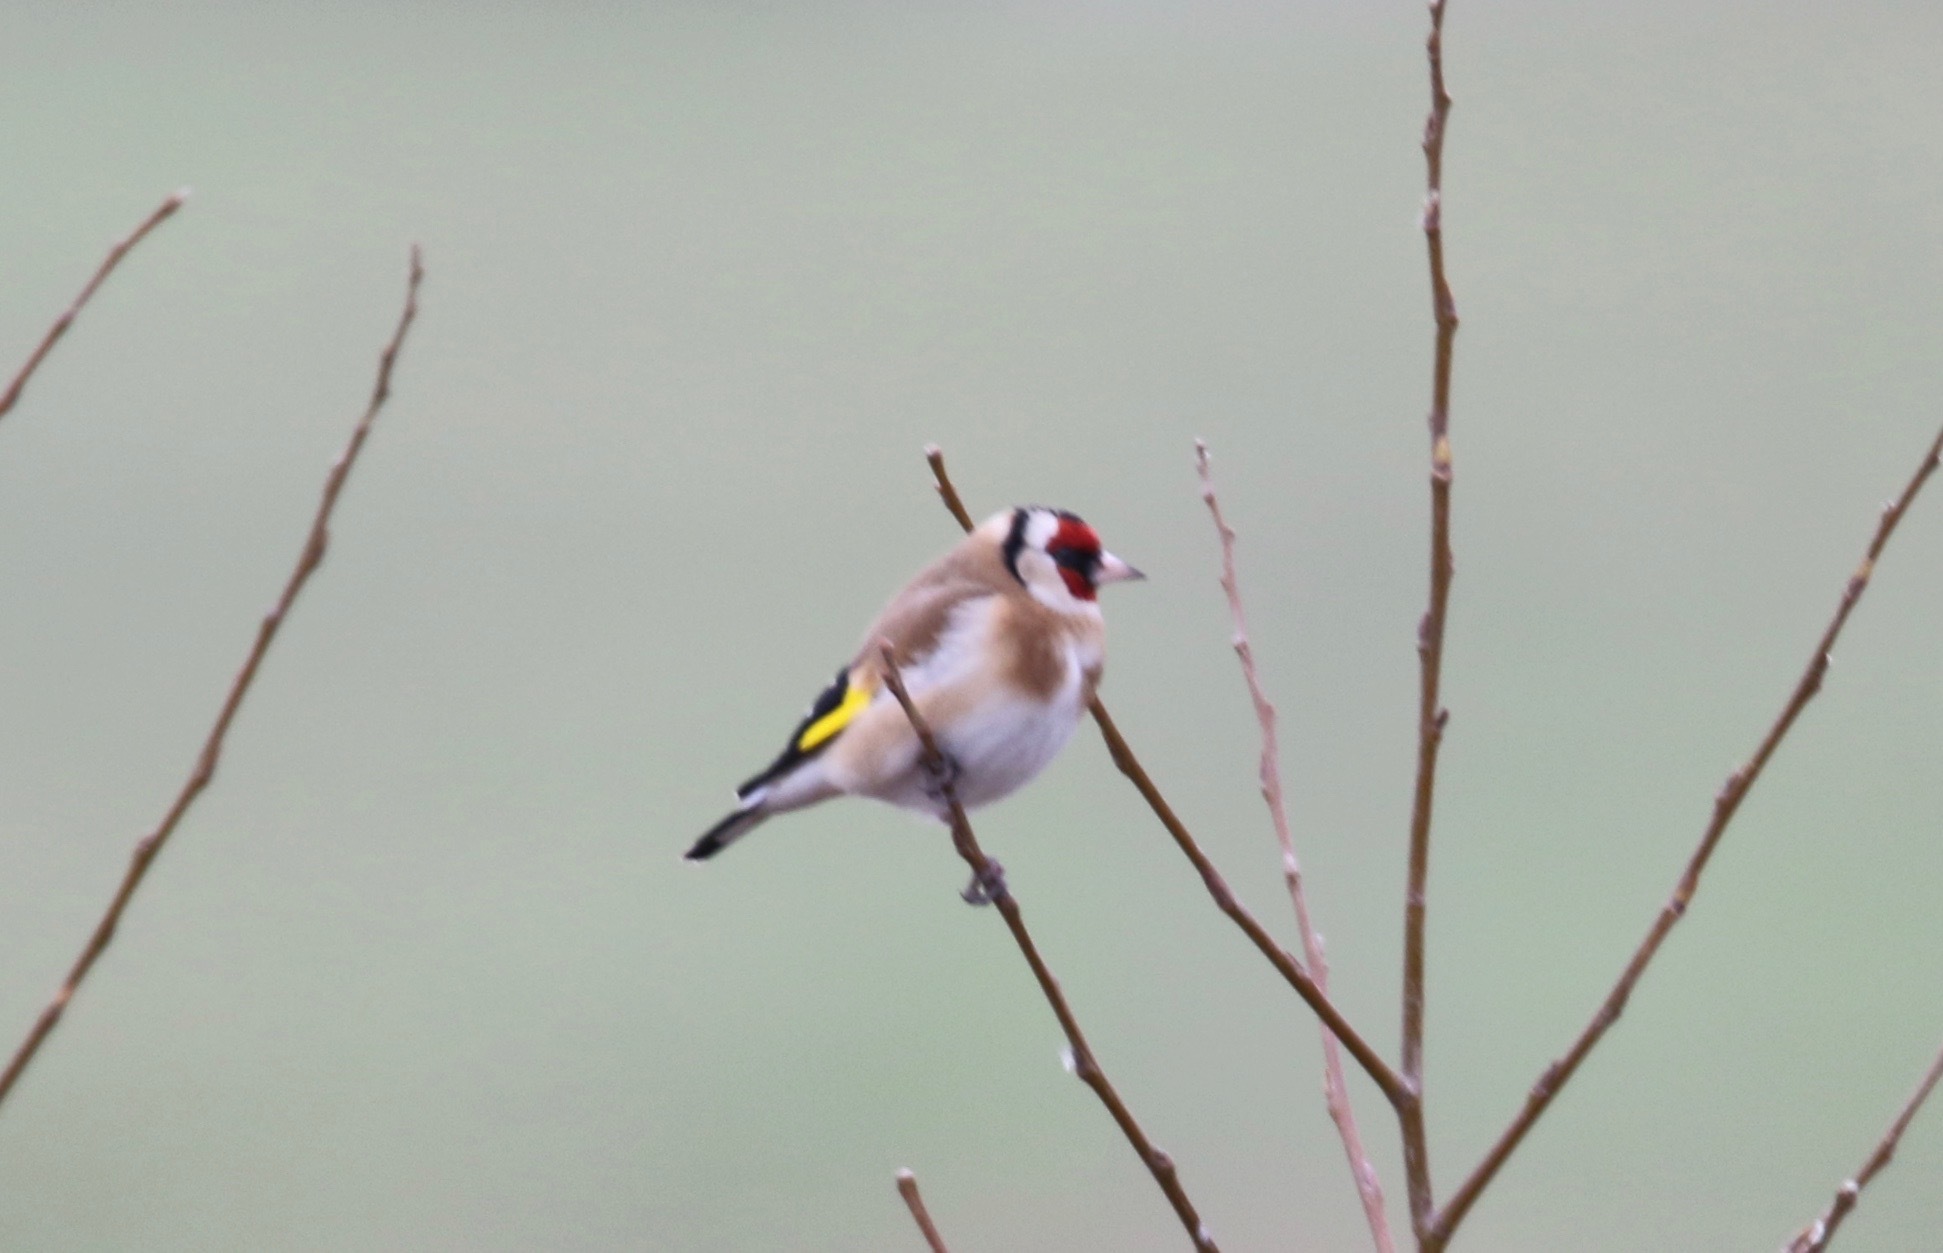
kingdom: Animalia
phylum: Chordata
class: Aves
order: Passeriformes
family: Fringillidae
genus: Carduelis
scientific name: Carduelis carduelis
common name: European goldfinch
